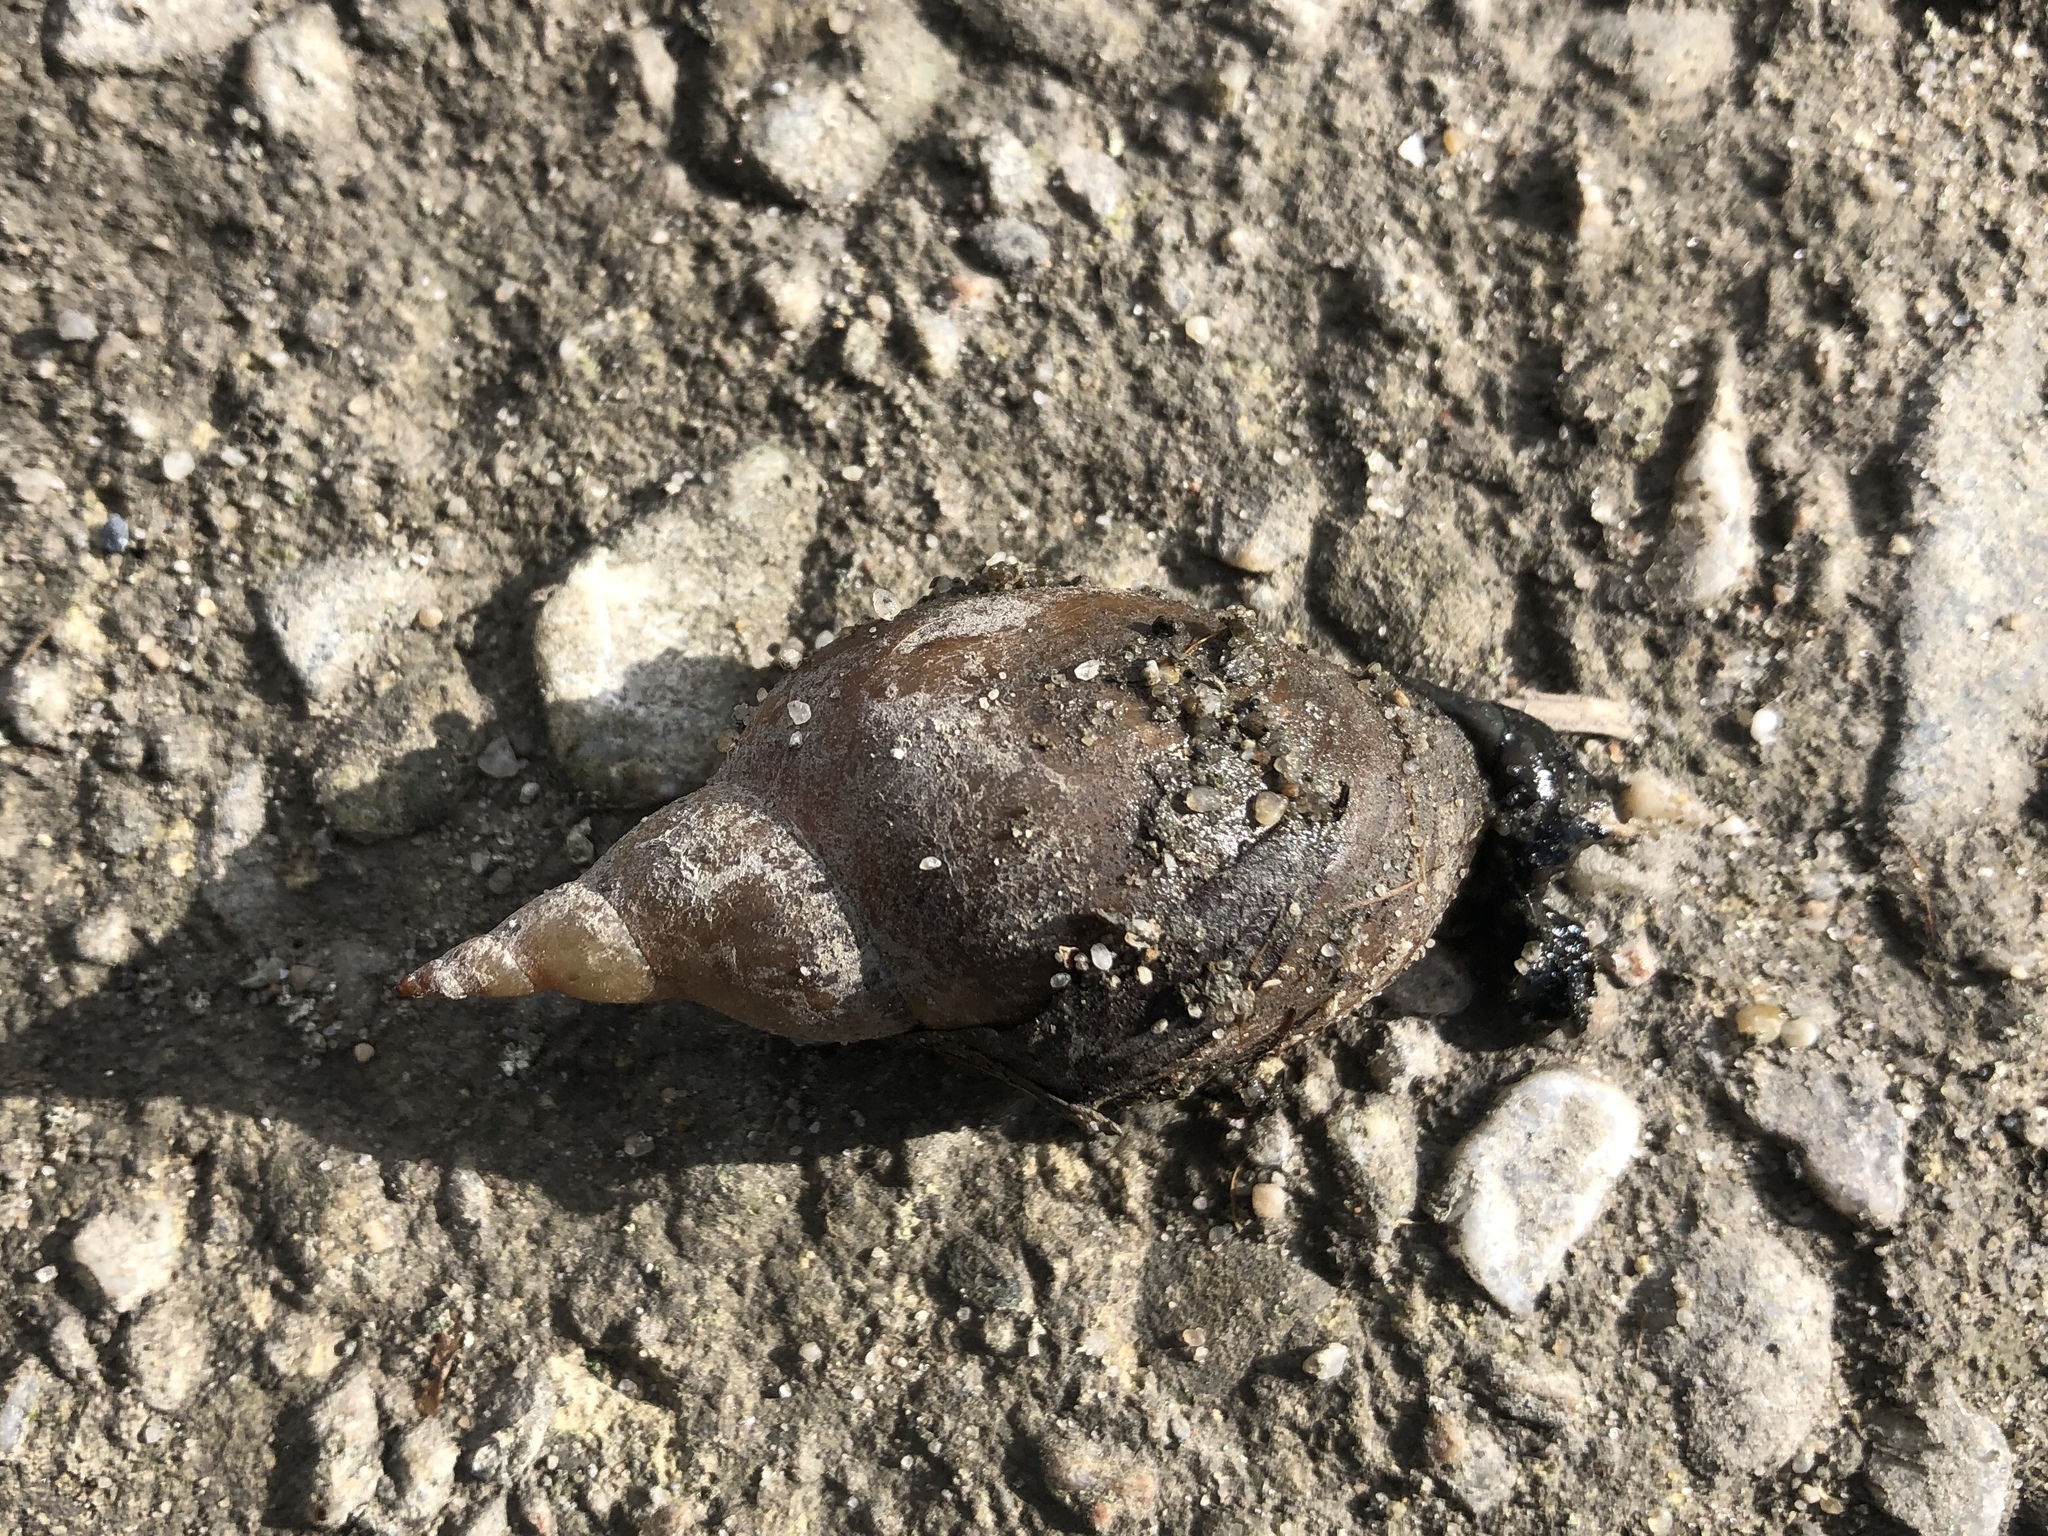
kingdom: Animalia
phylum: Mollusca
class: Gastropoda
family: Lymnaeidae
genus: Lymnaea
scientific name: Lymnaea stagnalis
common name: Great pond snail
